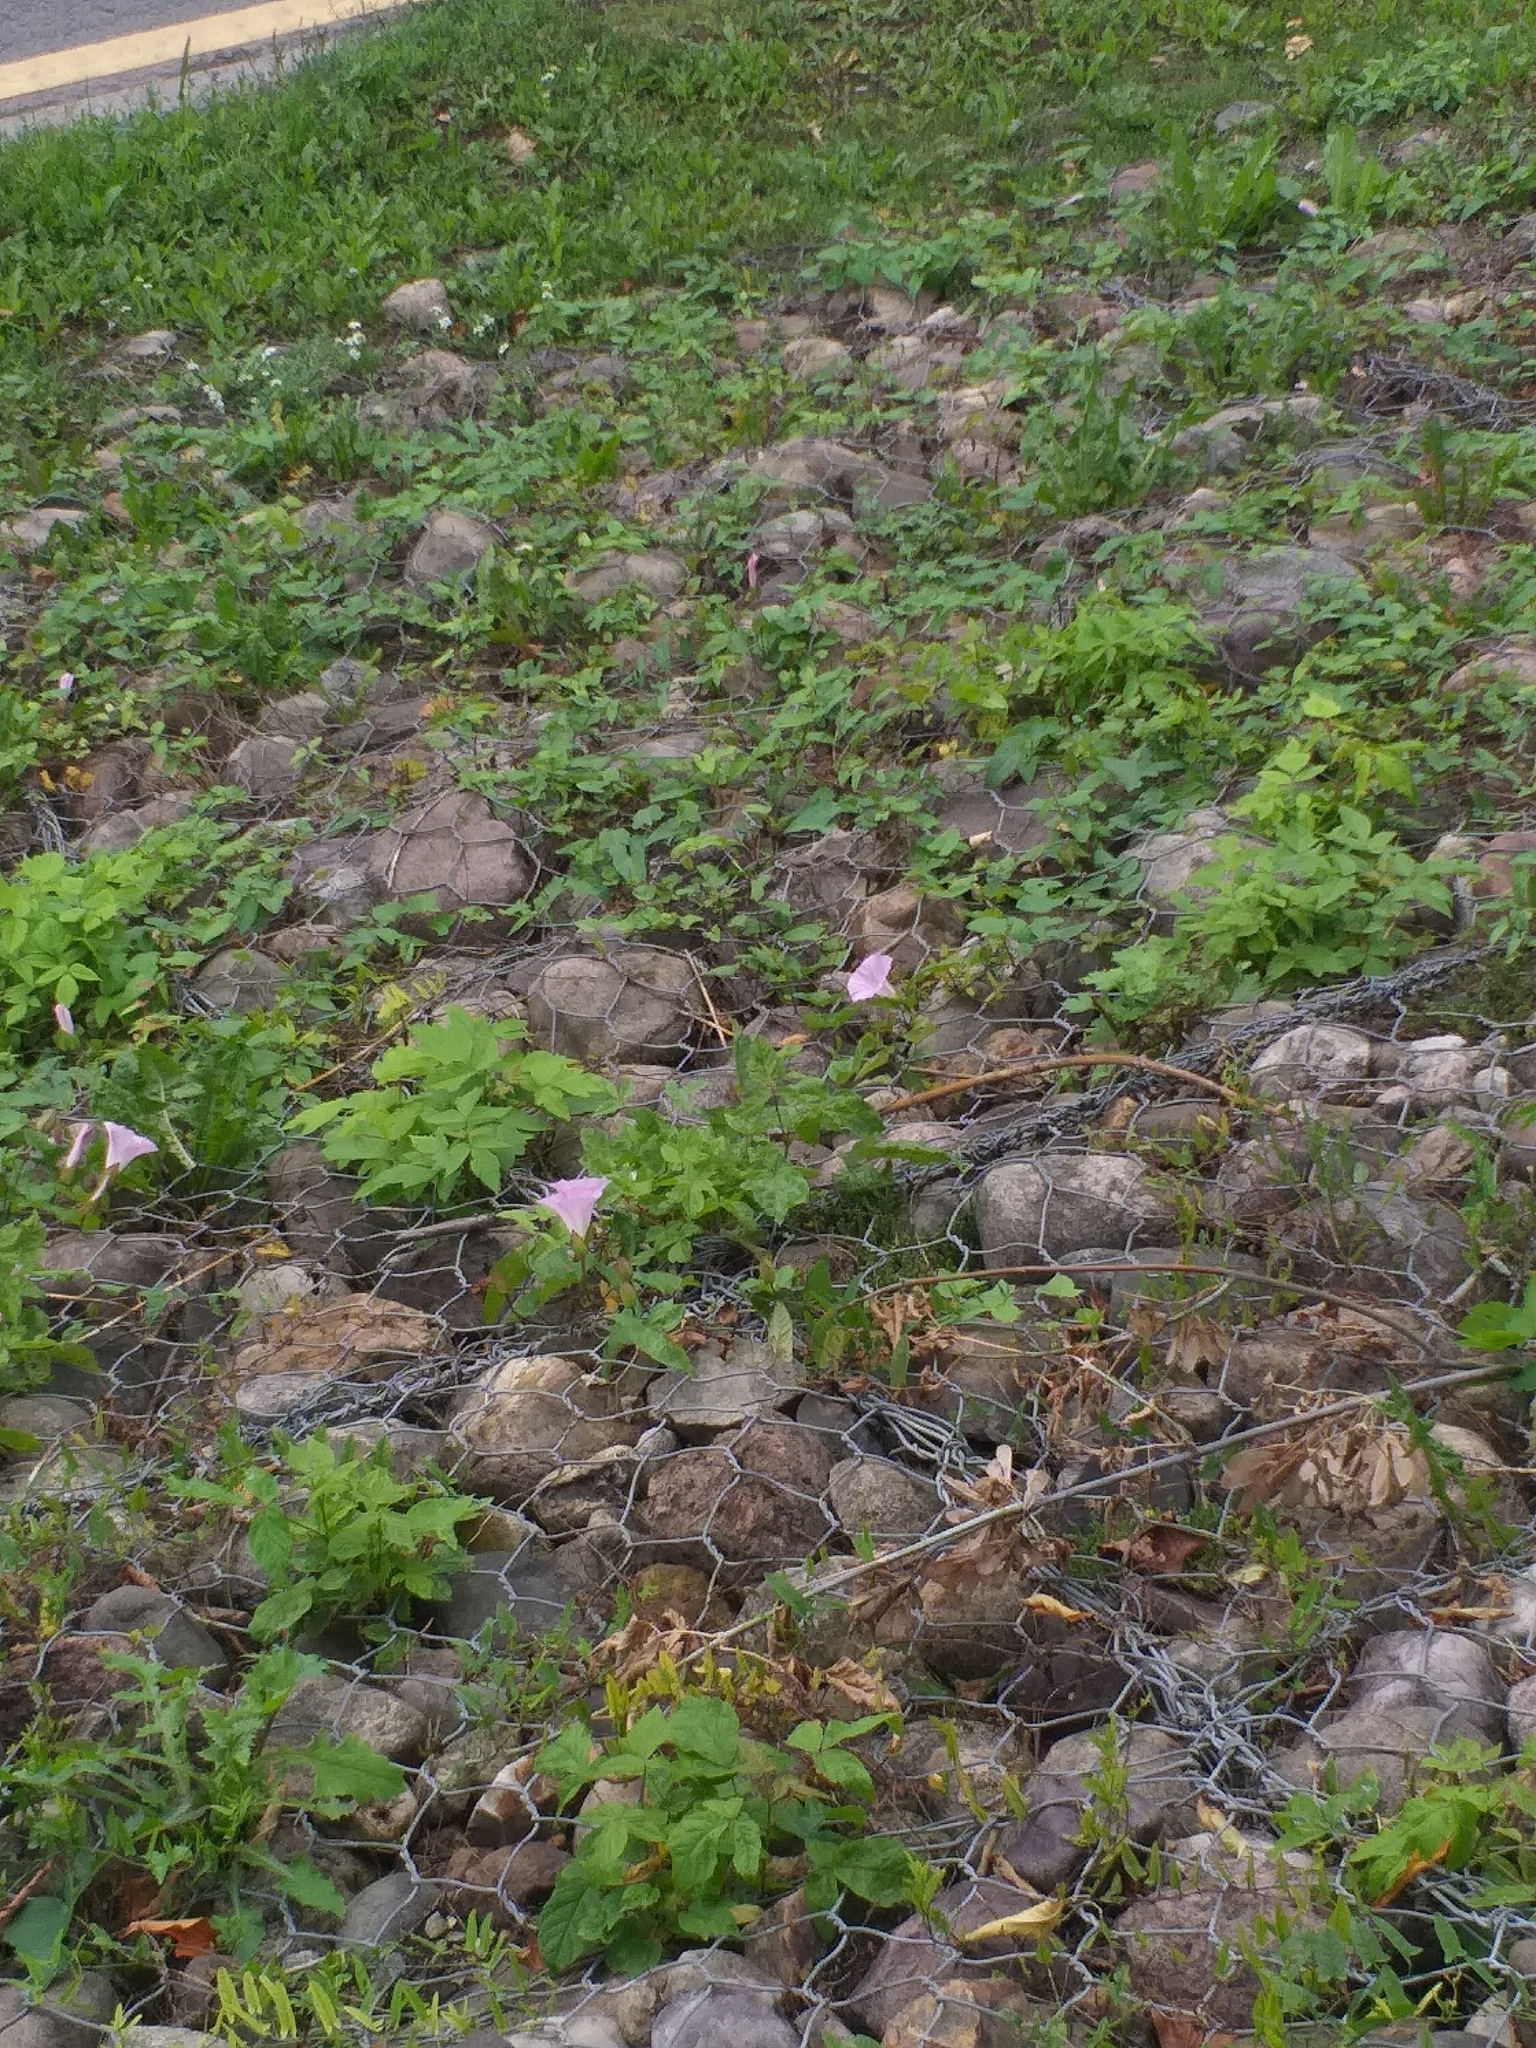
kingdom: Plantae
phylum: Tracheophyta
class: Magnoliopsida
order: Solanales
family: Convolvulaceae
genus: Calystegia
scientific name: Calystegia sepium
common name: Hedge bindweed
